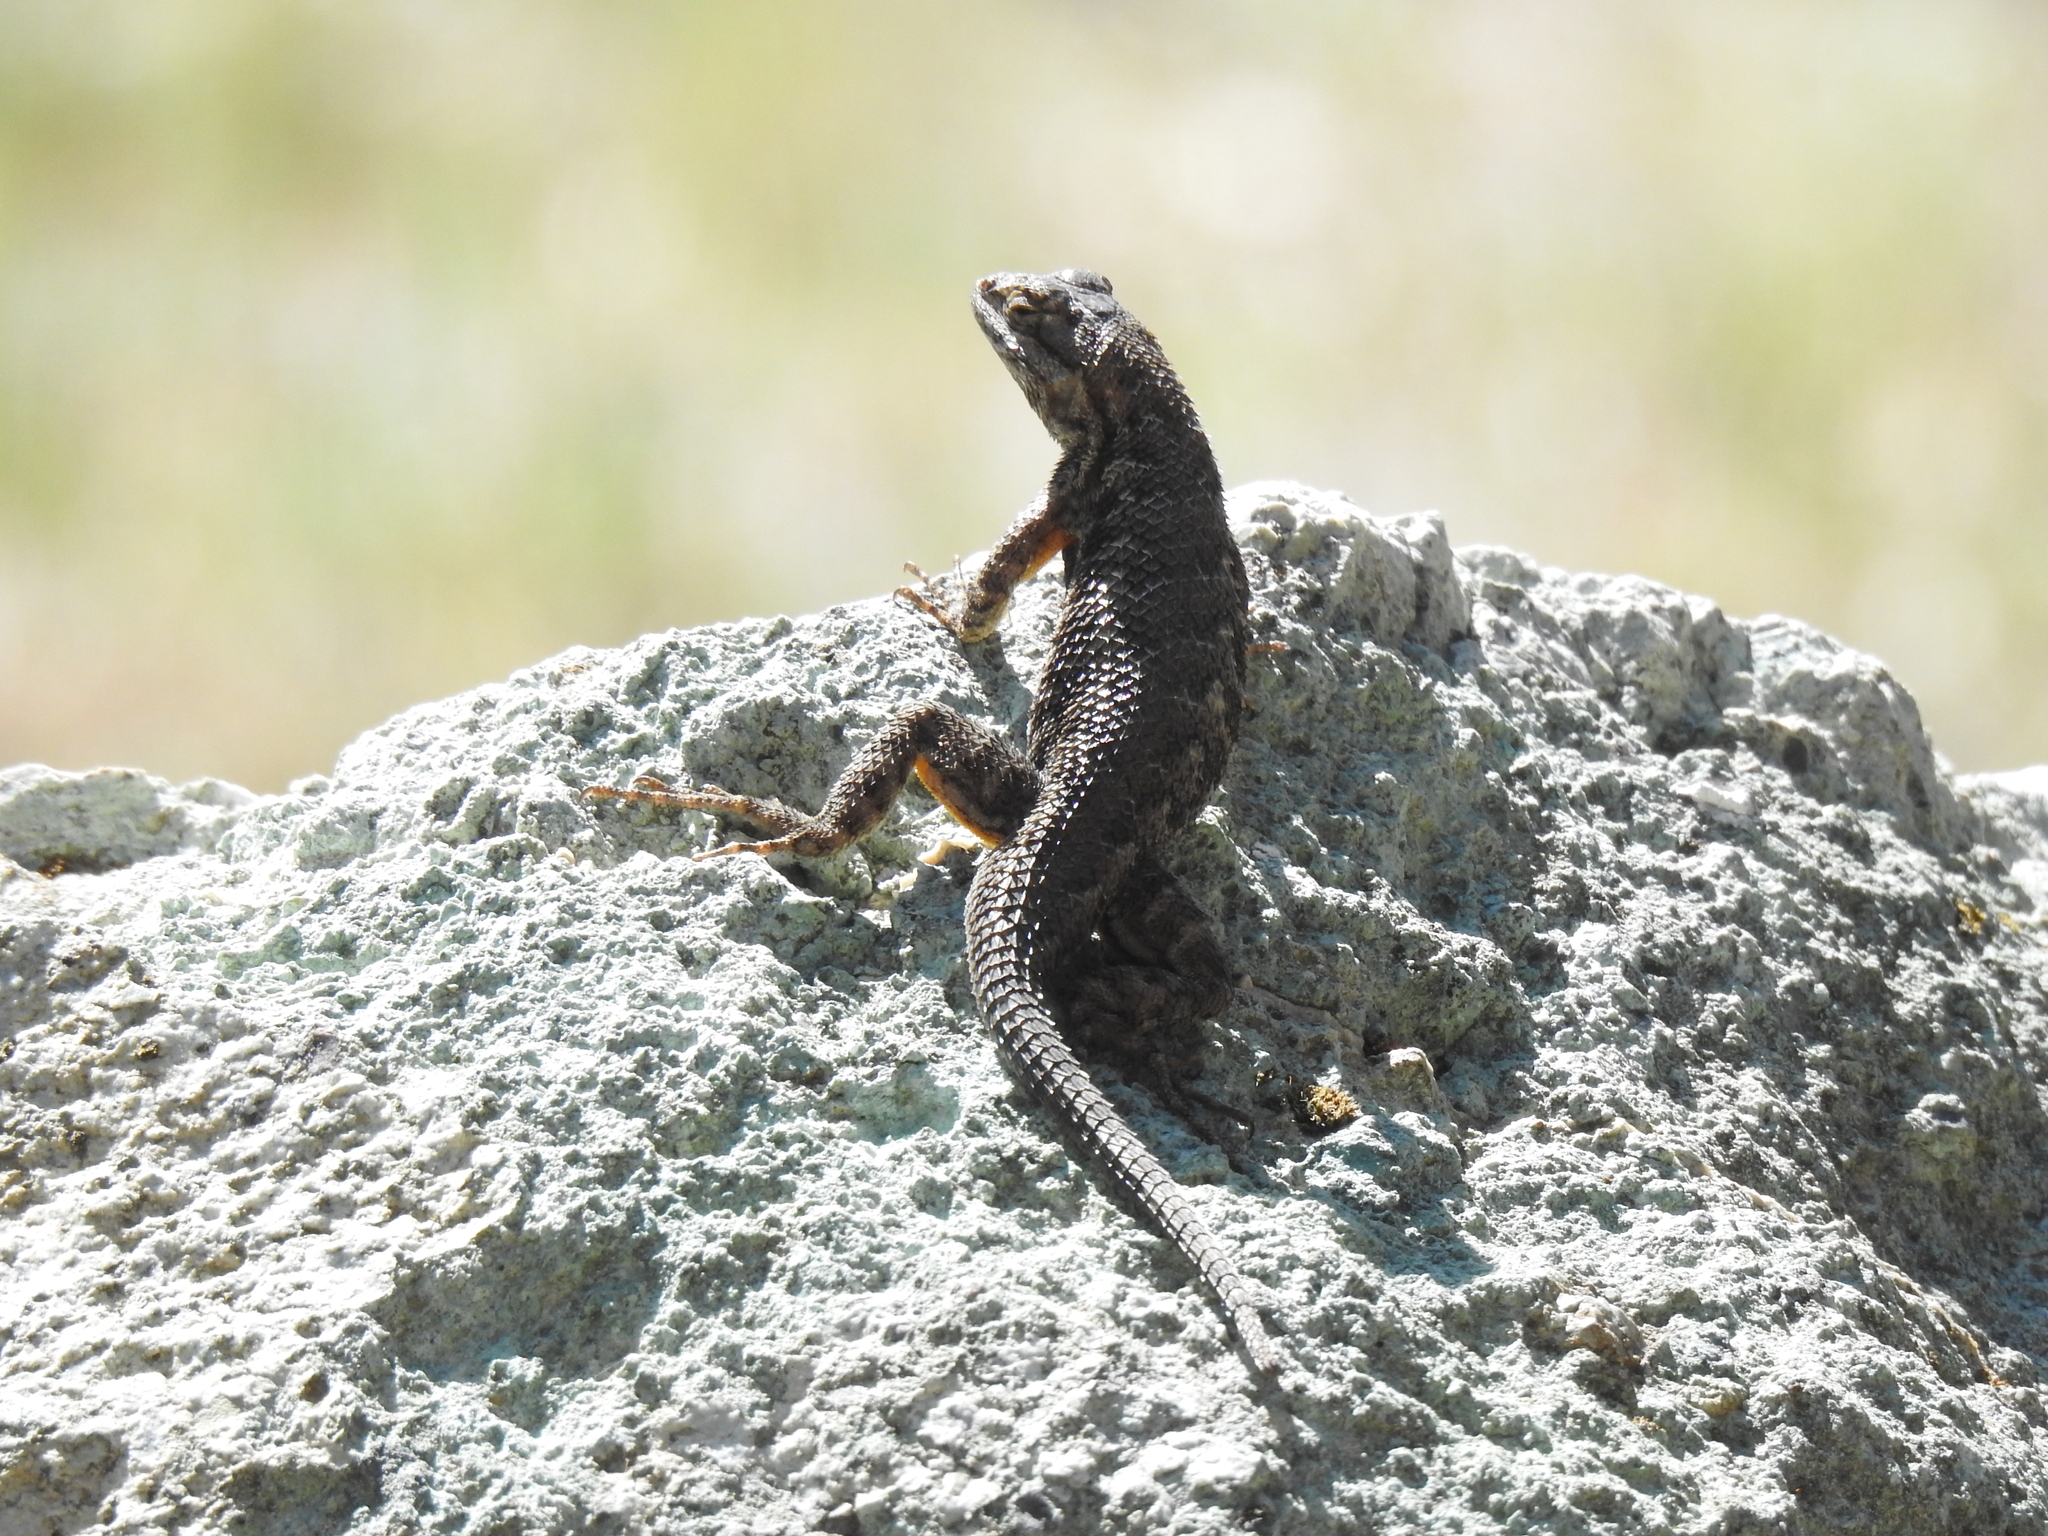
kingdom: Animalia
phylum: Chordata
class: Squamata
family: Phrynosomatidae
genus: Sceloporus
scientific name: Sceloporus occidentalis
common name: Western fence lizard
